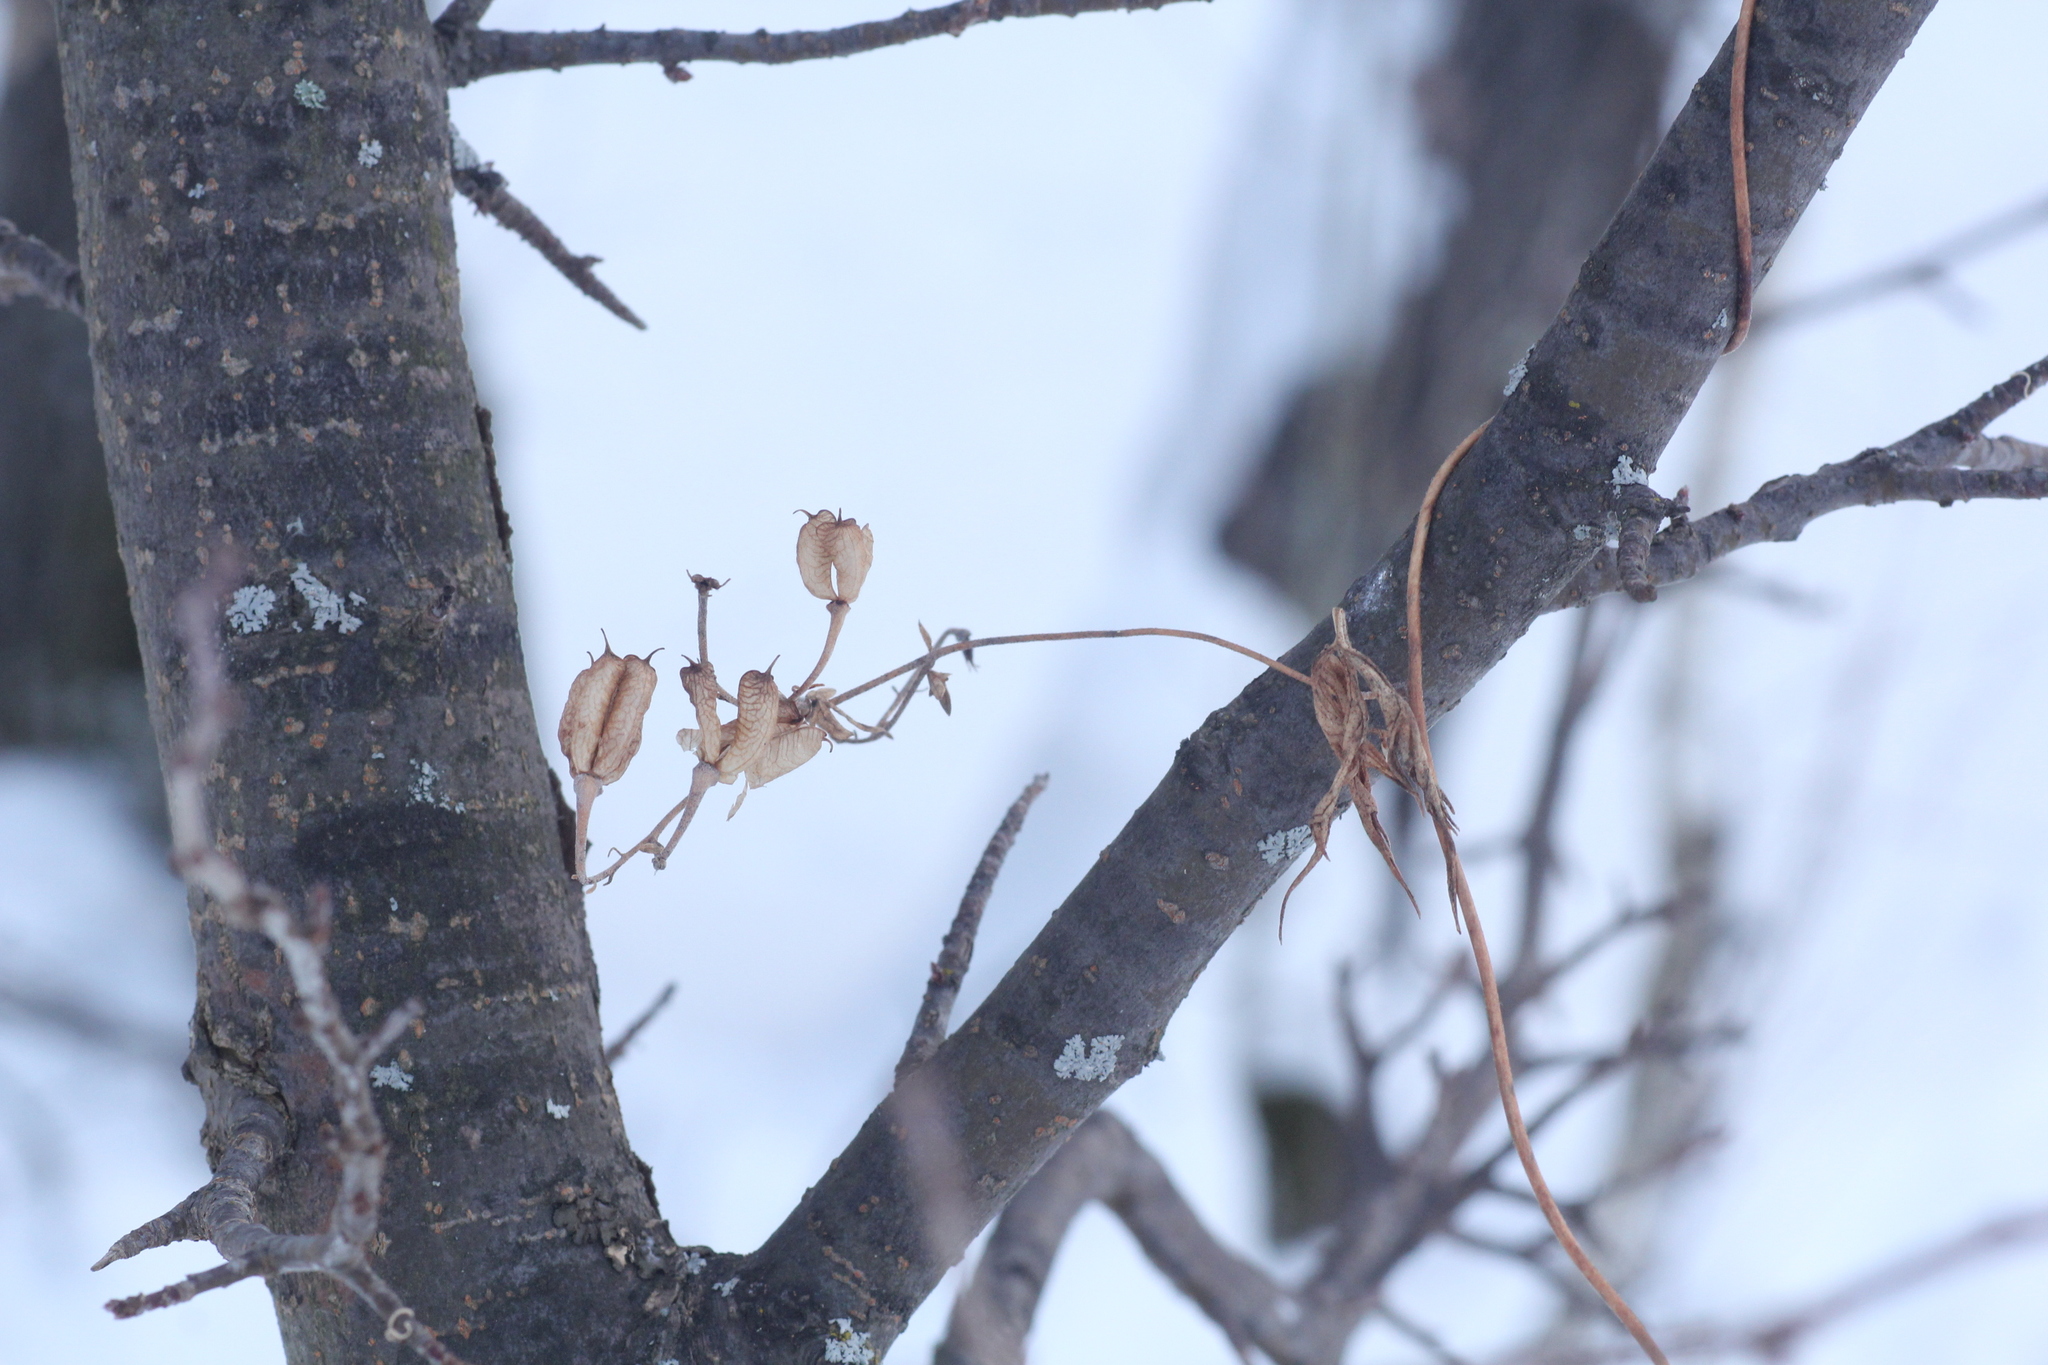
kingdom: Plantae
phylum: Tracheophyta
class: Magnoliopsida
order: Ranunculales
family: Ranunculaceae
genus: Aconitum
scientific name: Aconitum volubile
